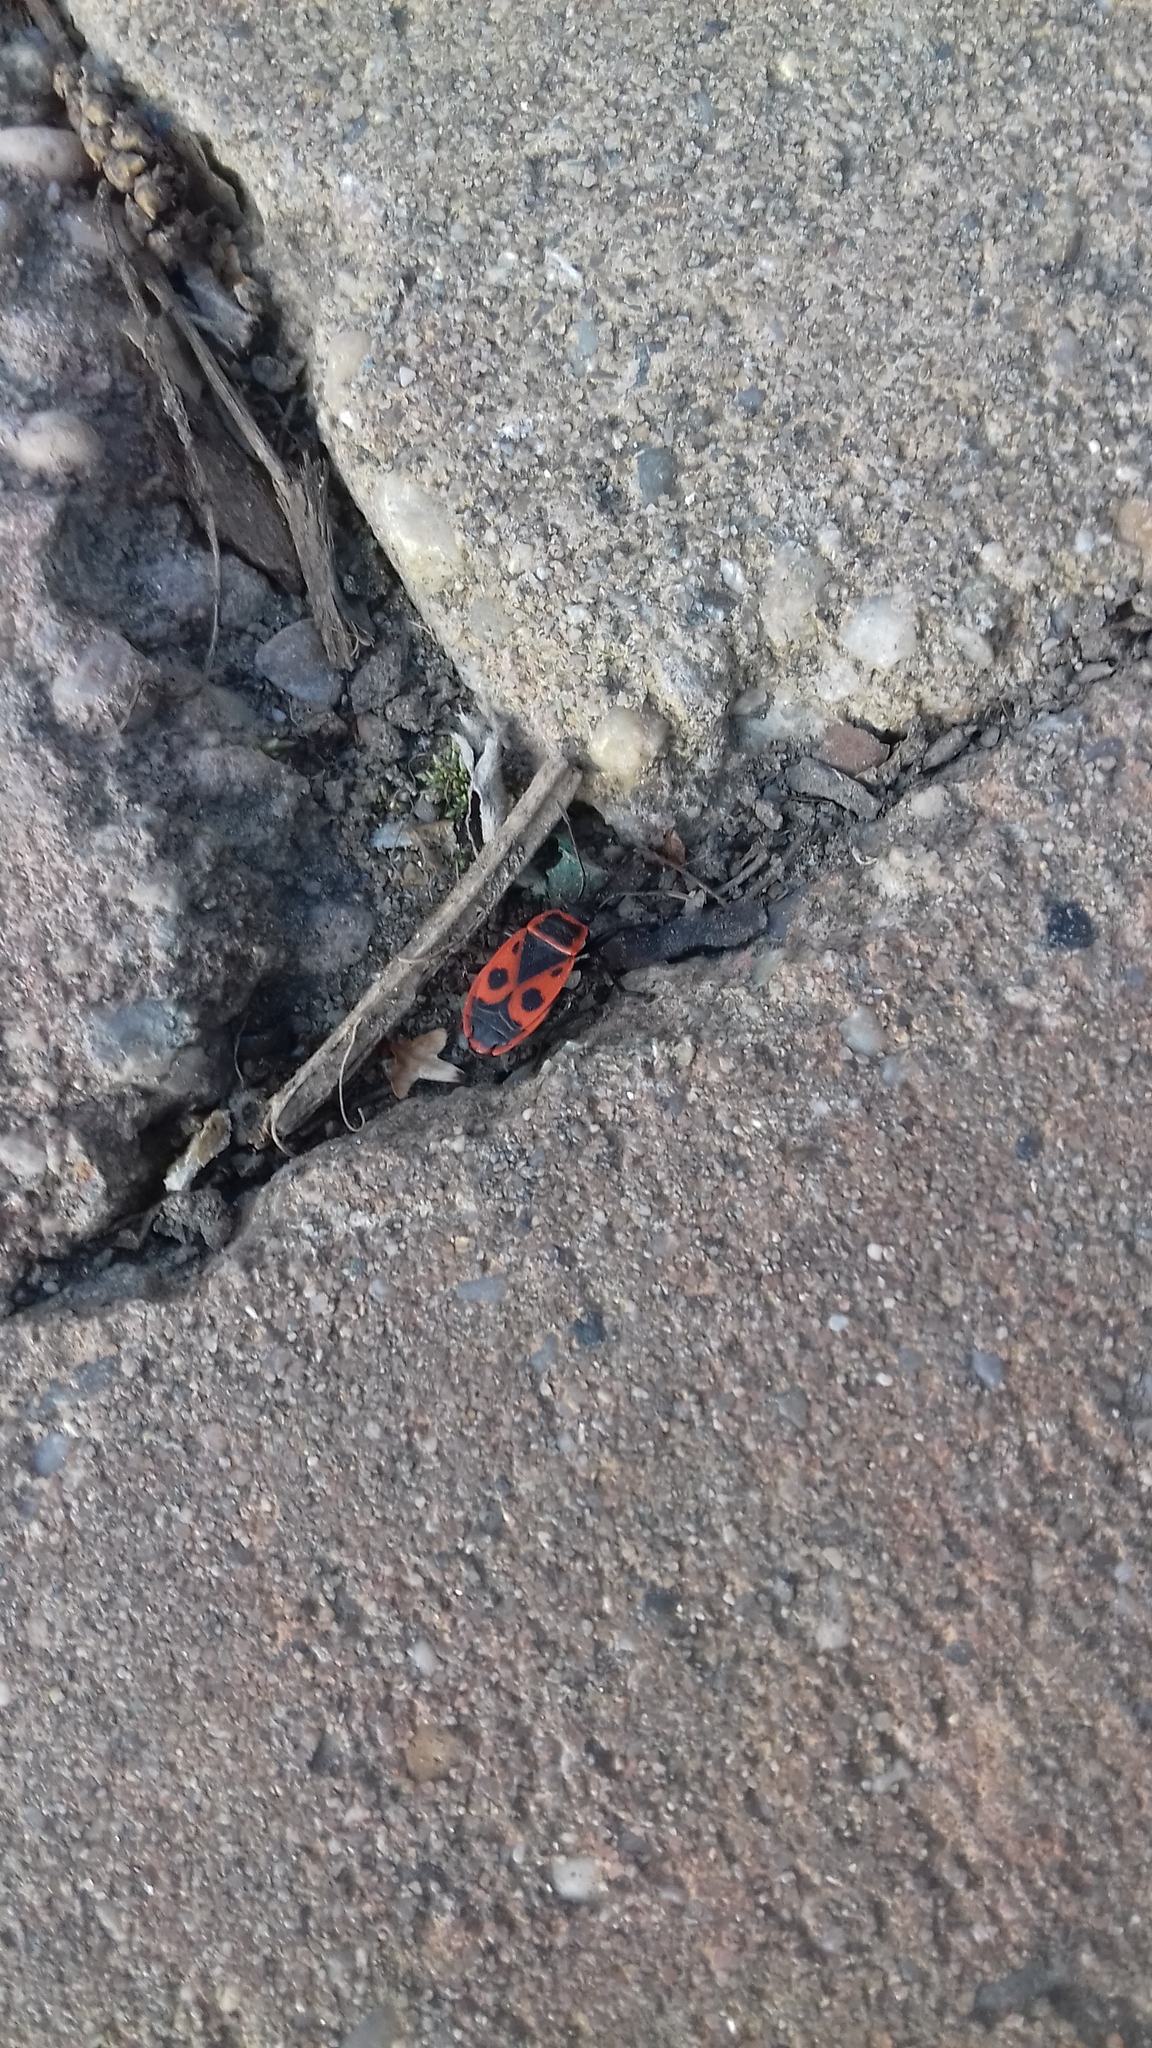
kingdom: Animalia
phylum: Arthropoda
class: Insecta
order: Hemiptera
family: Pyrrhocoridae
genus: Pyrrhocoris
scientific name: Pyrrhocoris apterus
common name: Firebug
